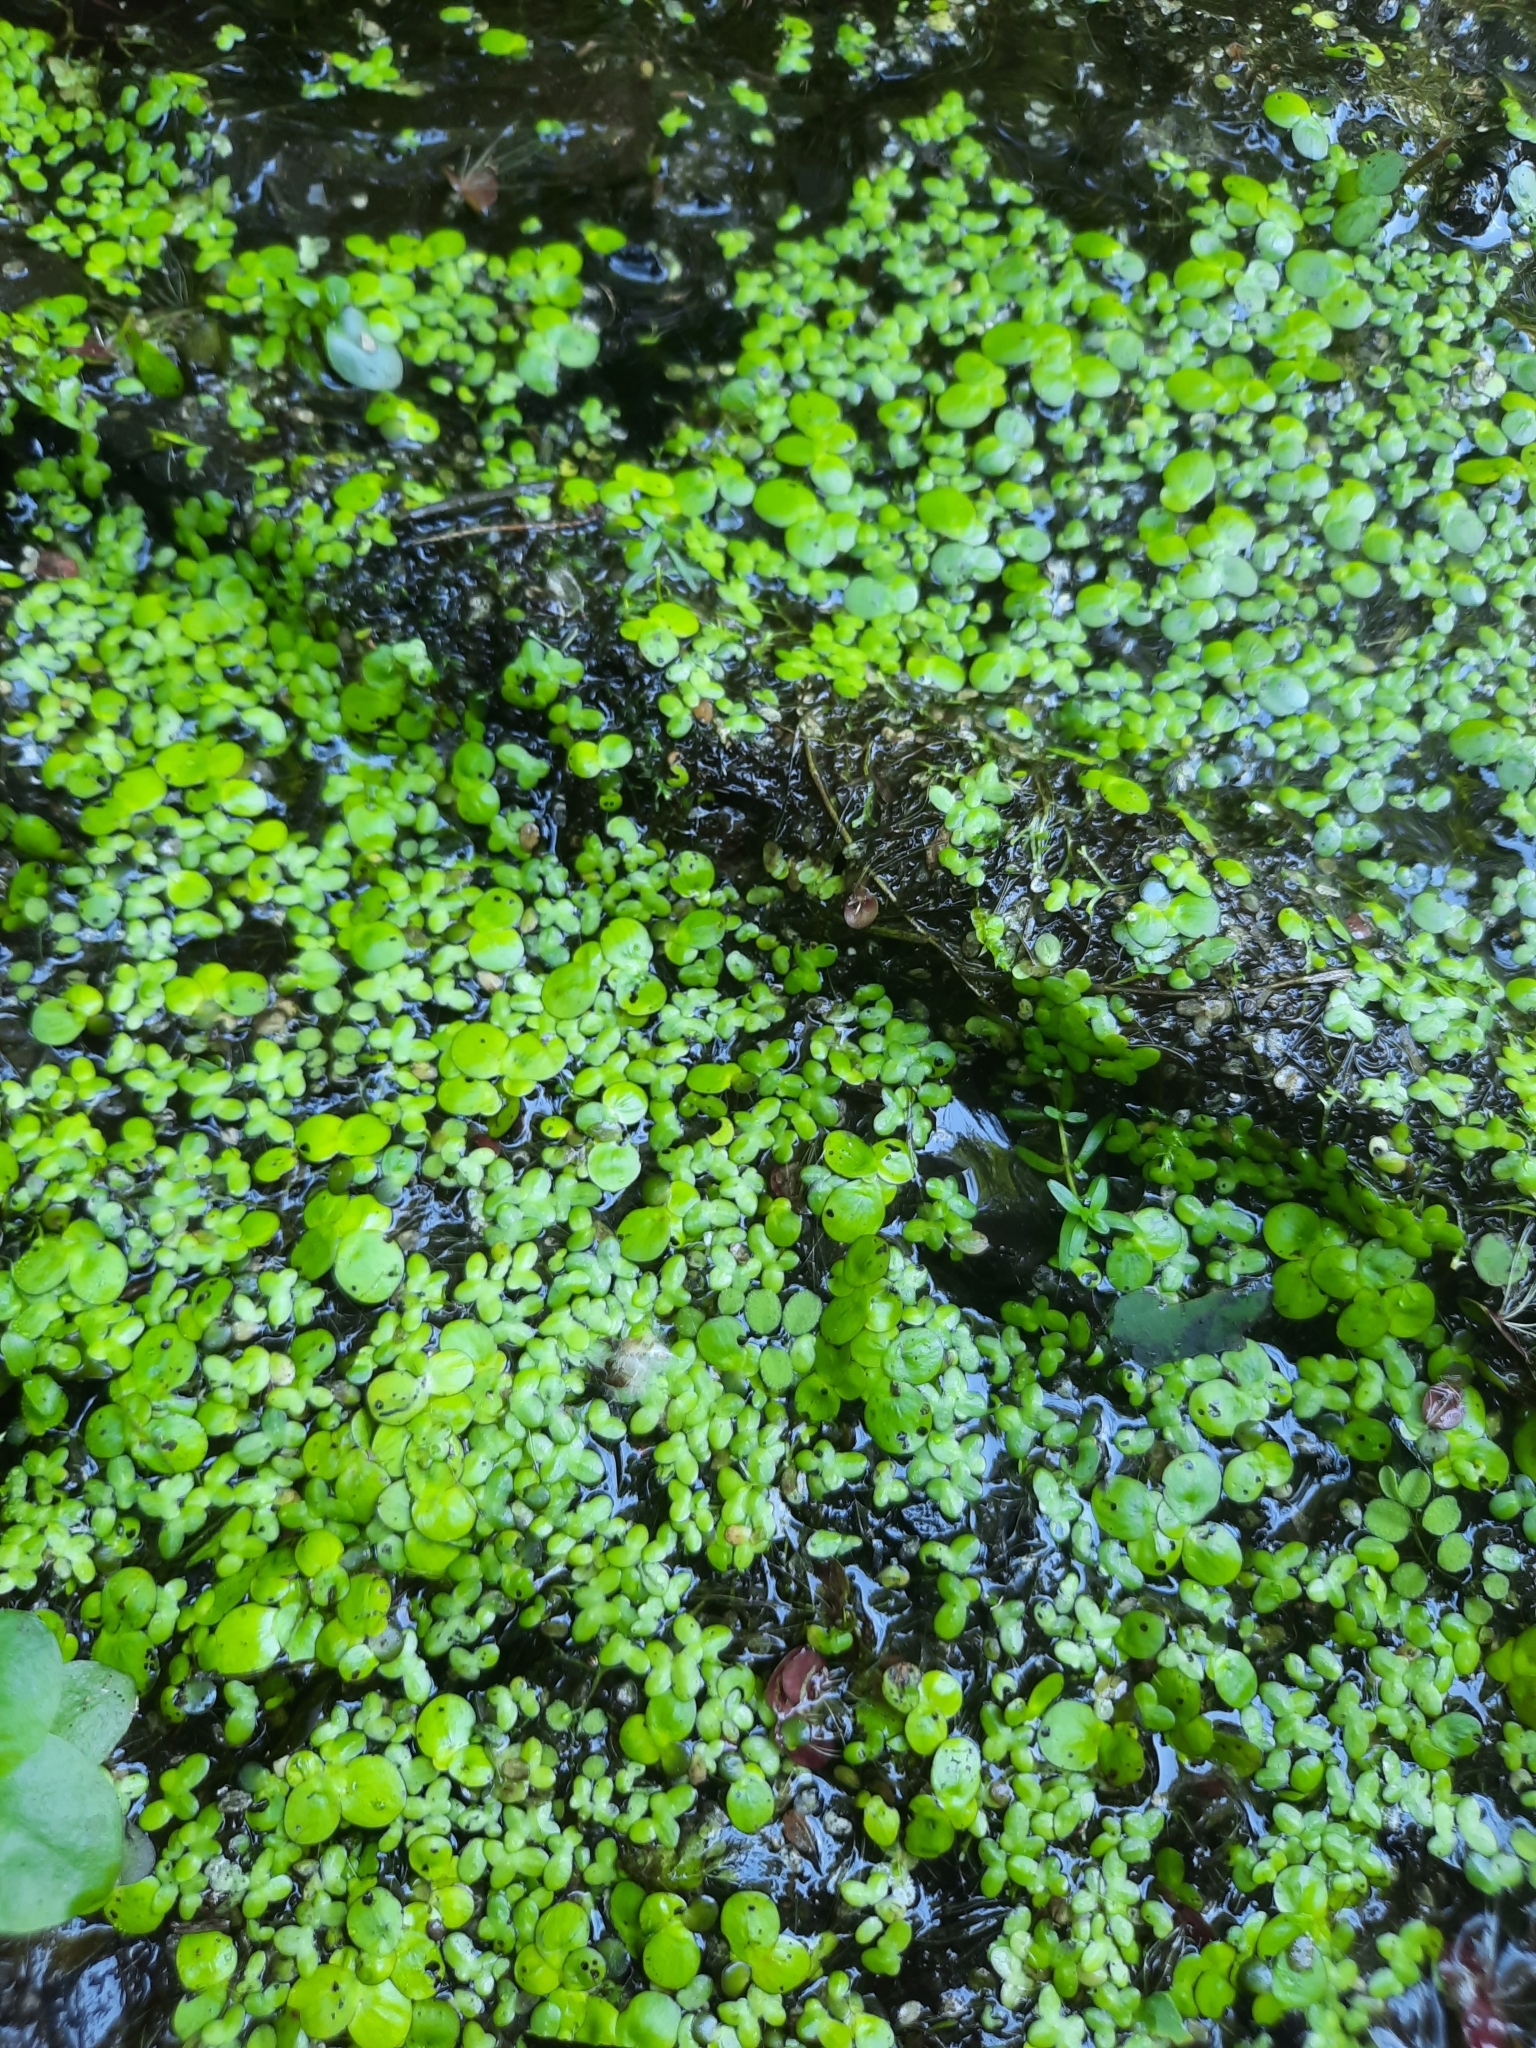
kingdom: Plantae
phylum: Tracheophyta
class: Liliopsida
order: Alismatales
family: Araceae
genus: Lemna
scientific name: Lemna minor
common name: Common duckweed
